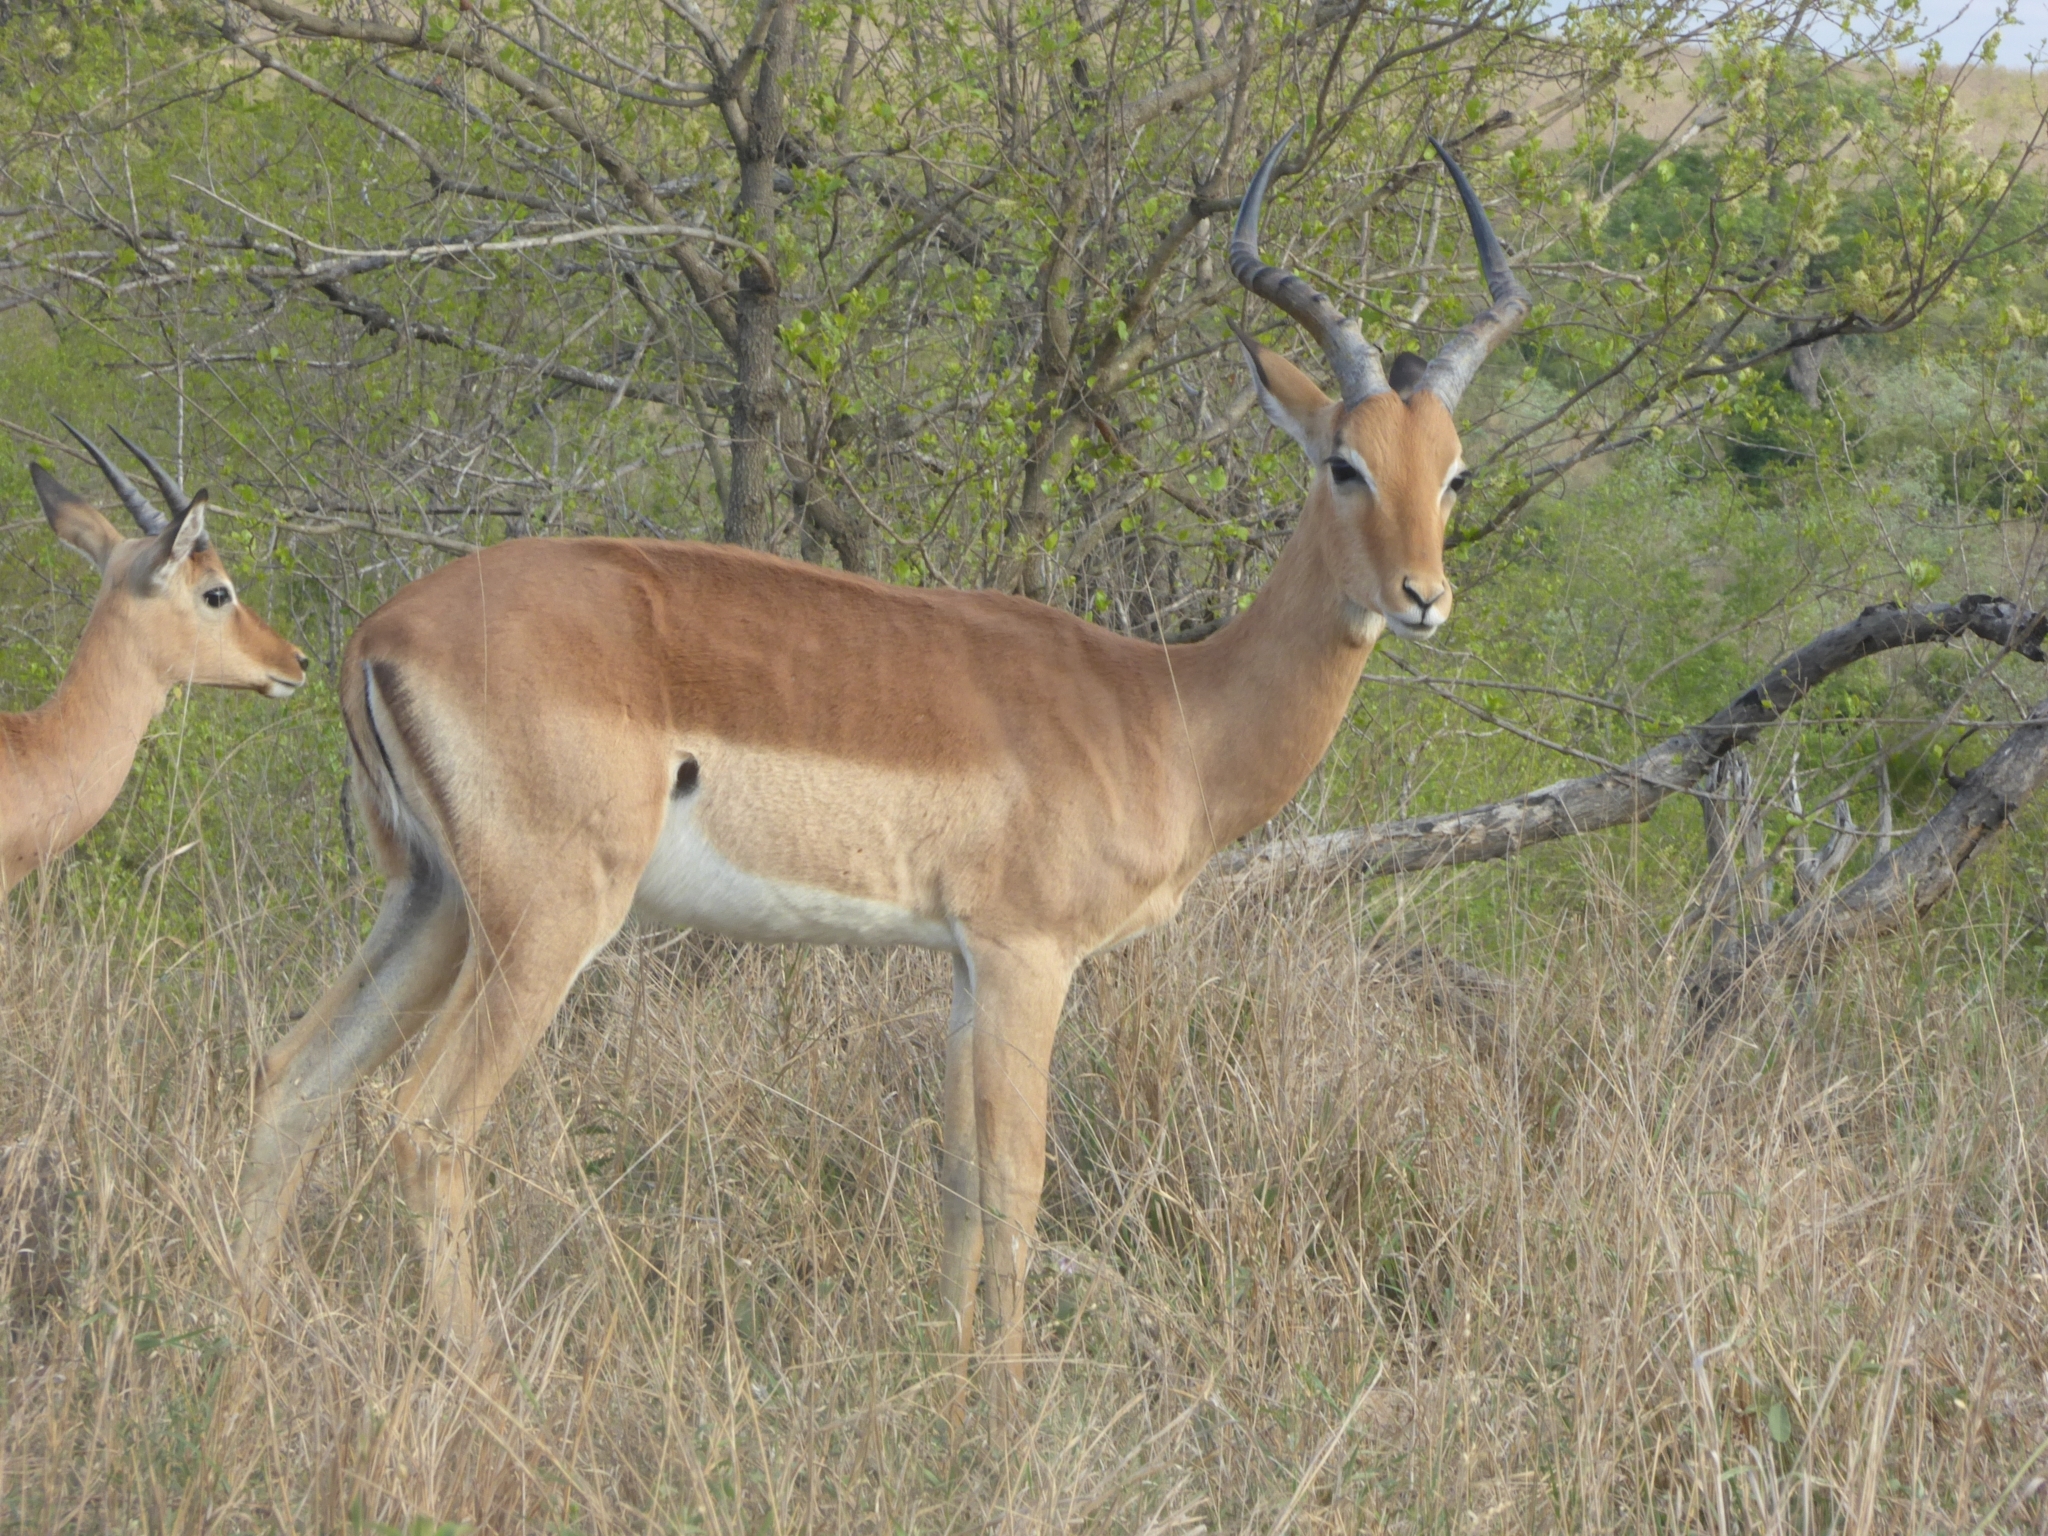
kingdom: Animalia
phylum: Chordata
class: Mammalia
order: Artiodactyla
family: Bovidae
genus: Aepyceros
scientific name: Aepyceros melampus
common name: Impala
